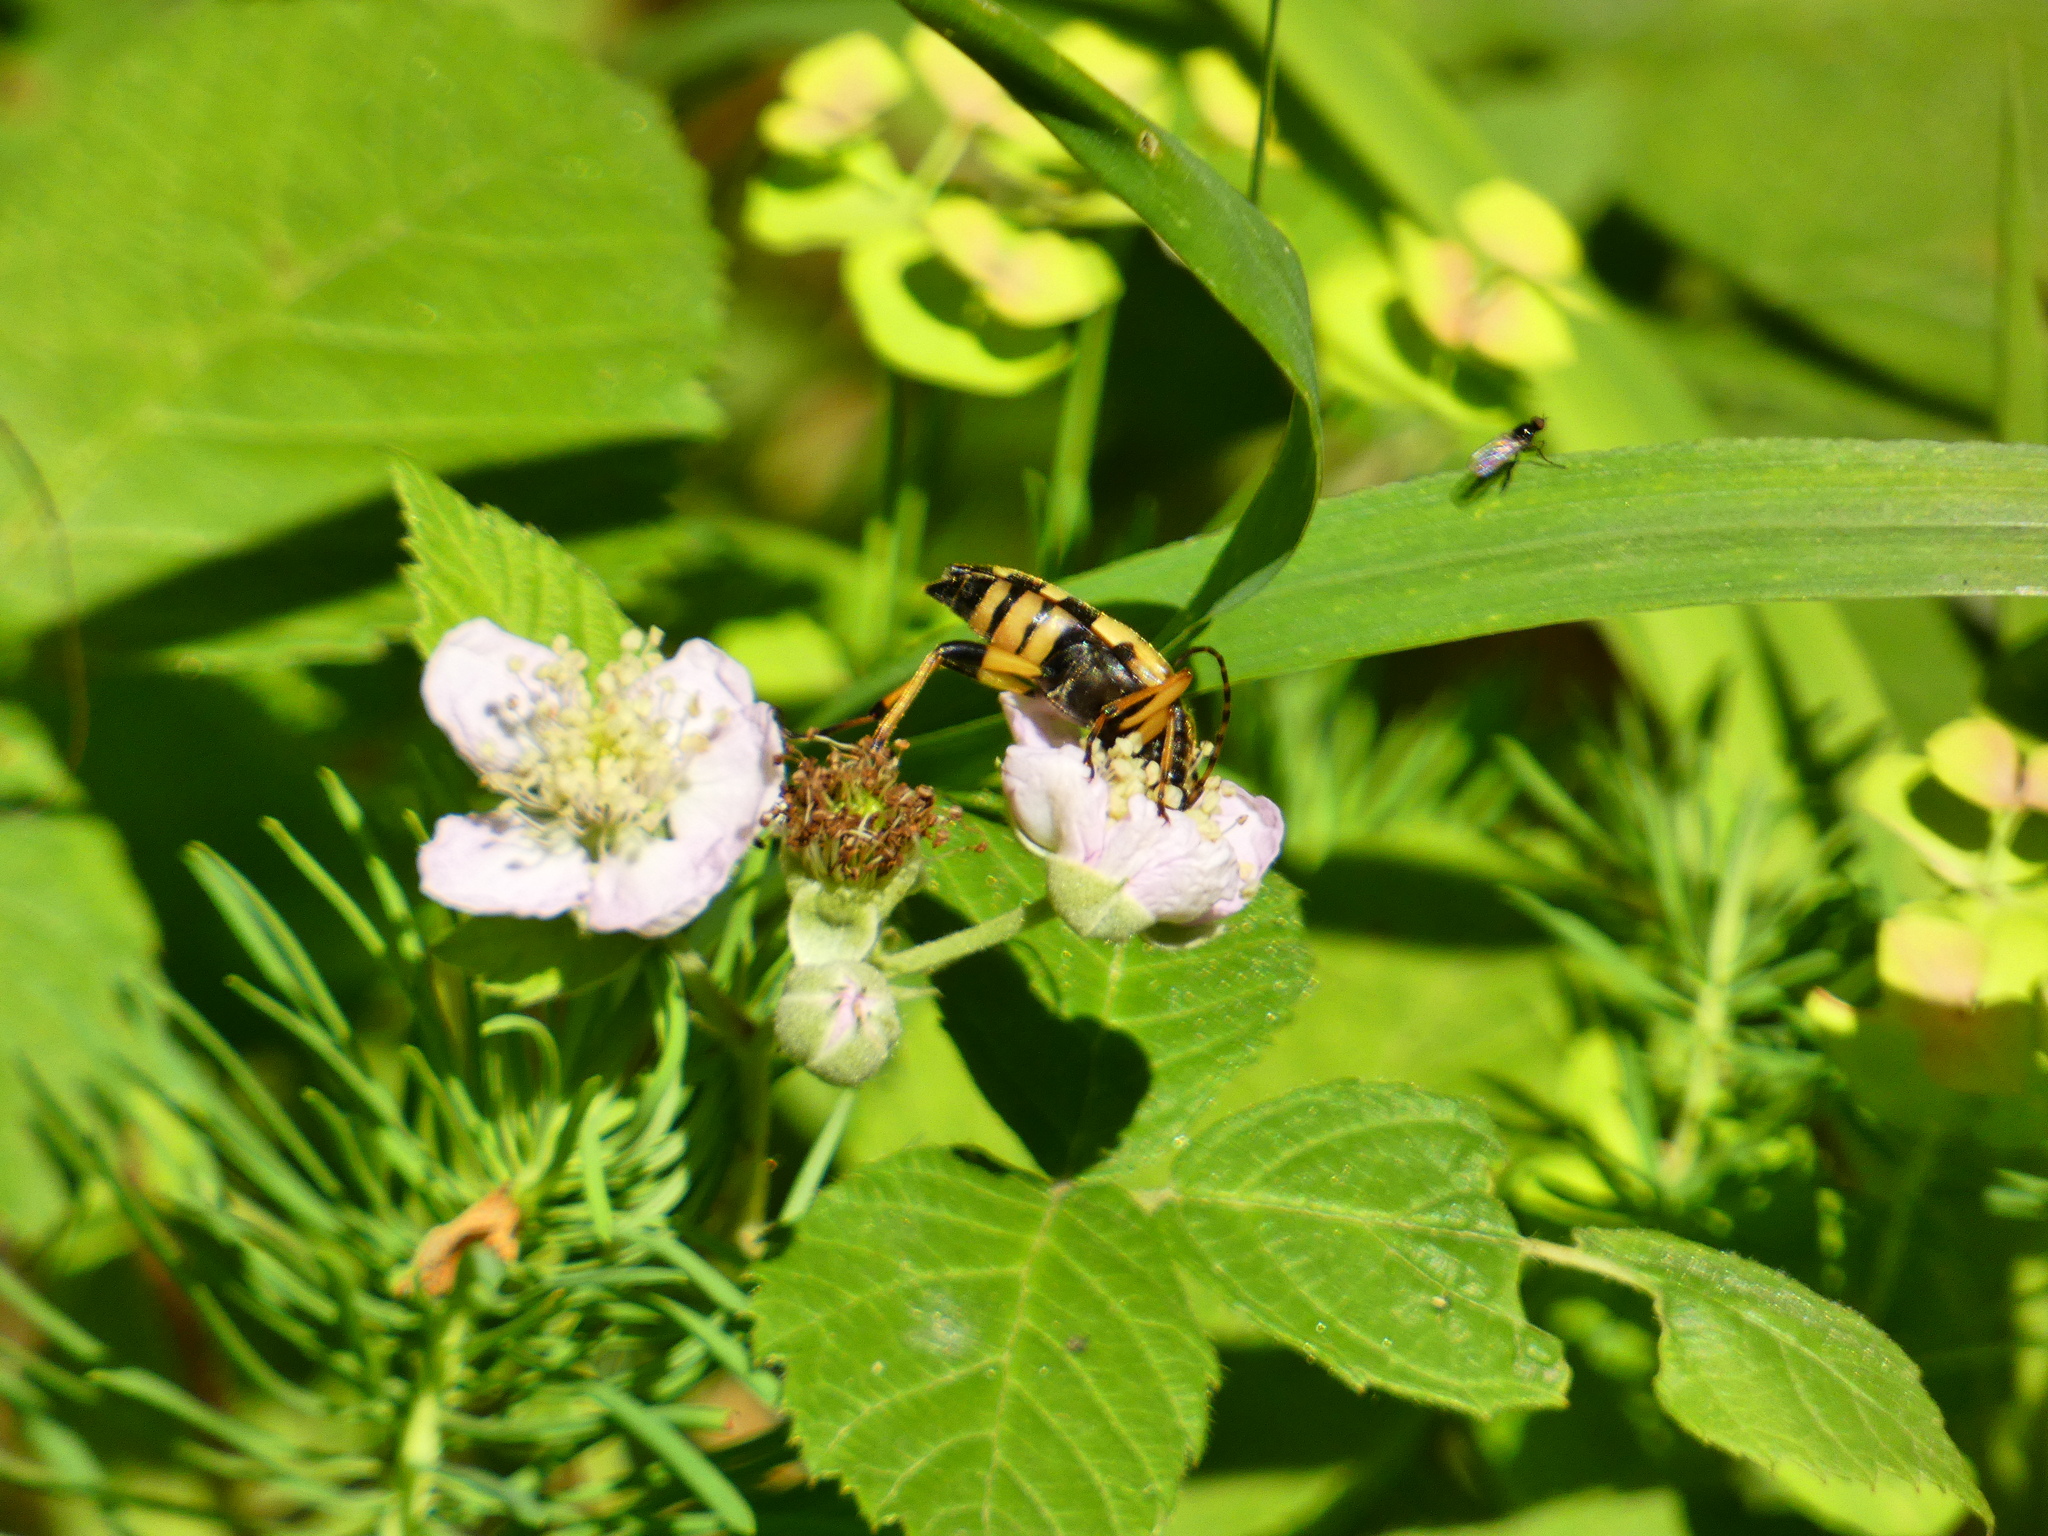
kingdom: Animalia
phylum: Arthropoda
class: Insecta
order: Coleoptera
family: Cerambycidae
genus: Rutpela
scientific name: Rutpela maculata
